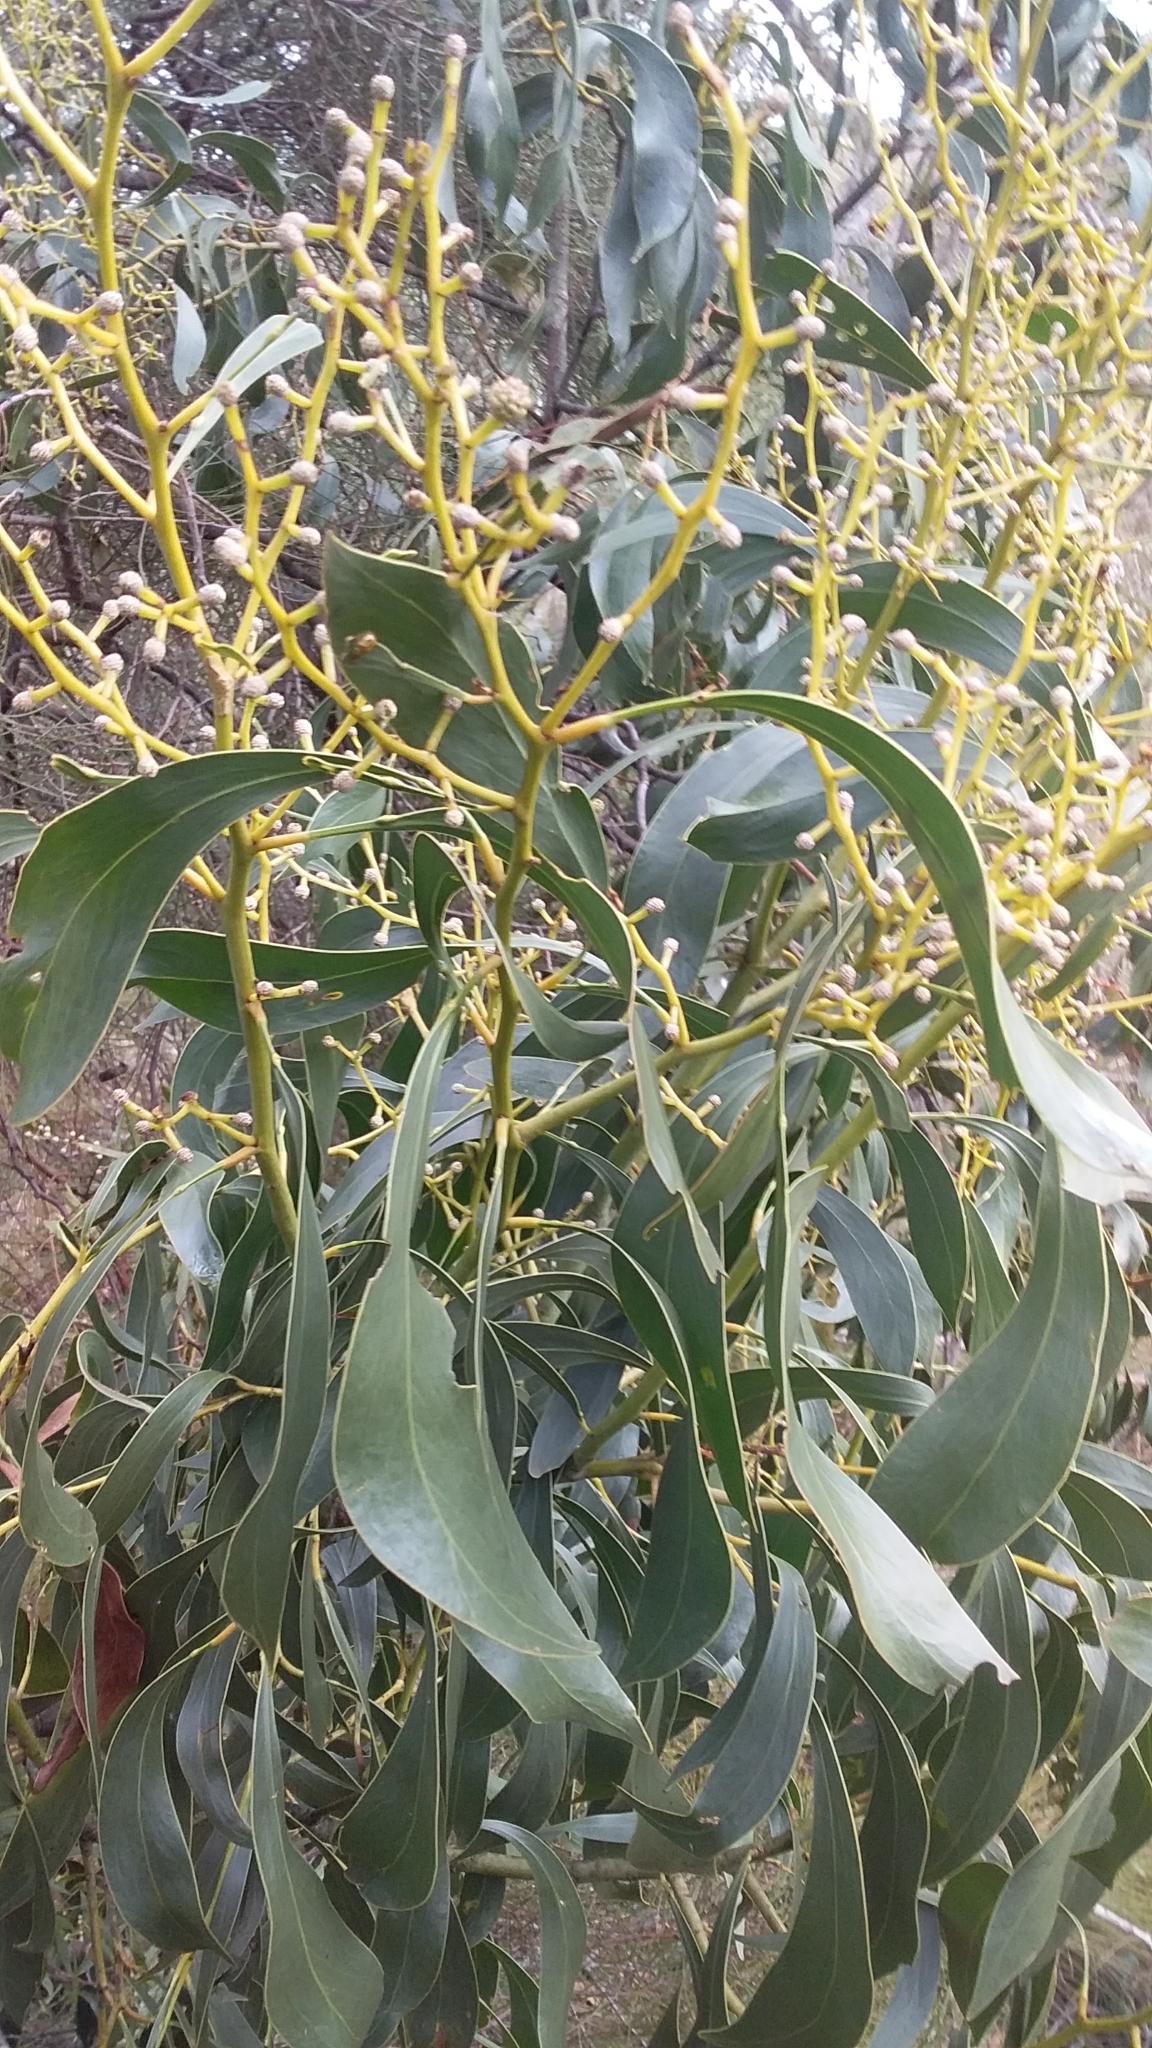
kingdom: Plantae
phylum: Tracheophyta
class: Magnoliopsida
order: Fabales
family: Fabaceae
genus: Acacia
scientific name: Acacia pycnantha
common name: Golden wattle
